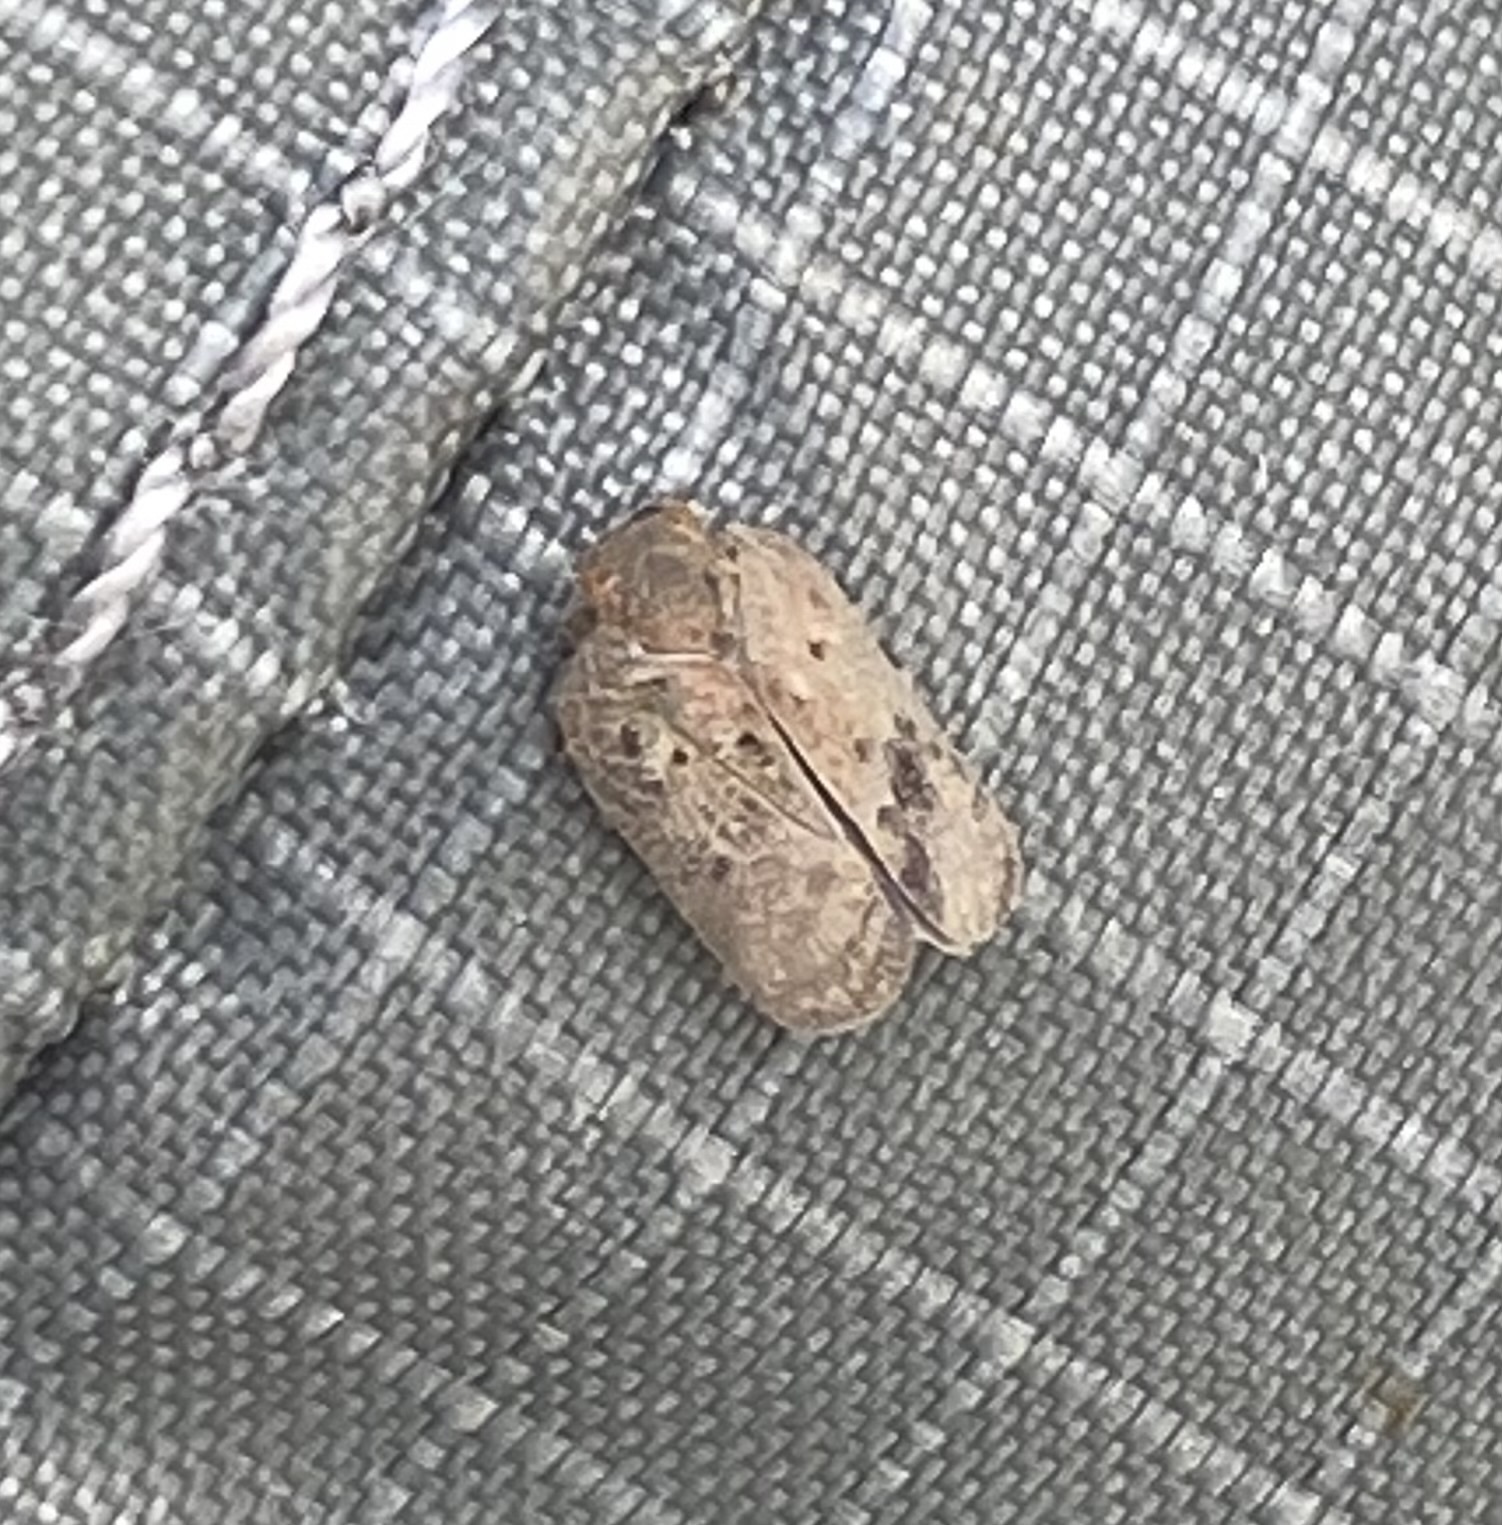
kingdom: Animalia
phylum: Arthropoda
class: Insecta
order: Hemiptera
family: Flatidae
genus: Melormenis
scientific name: Melormenis basalis
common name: Puerto rican planthopper
